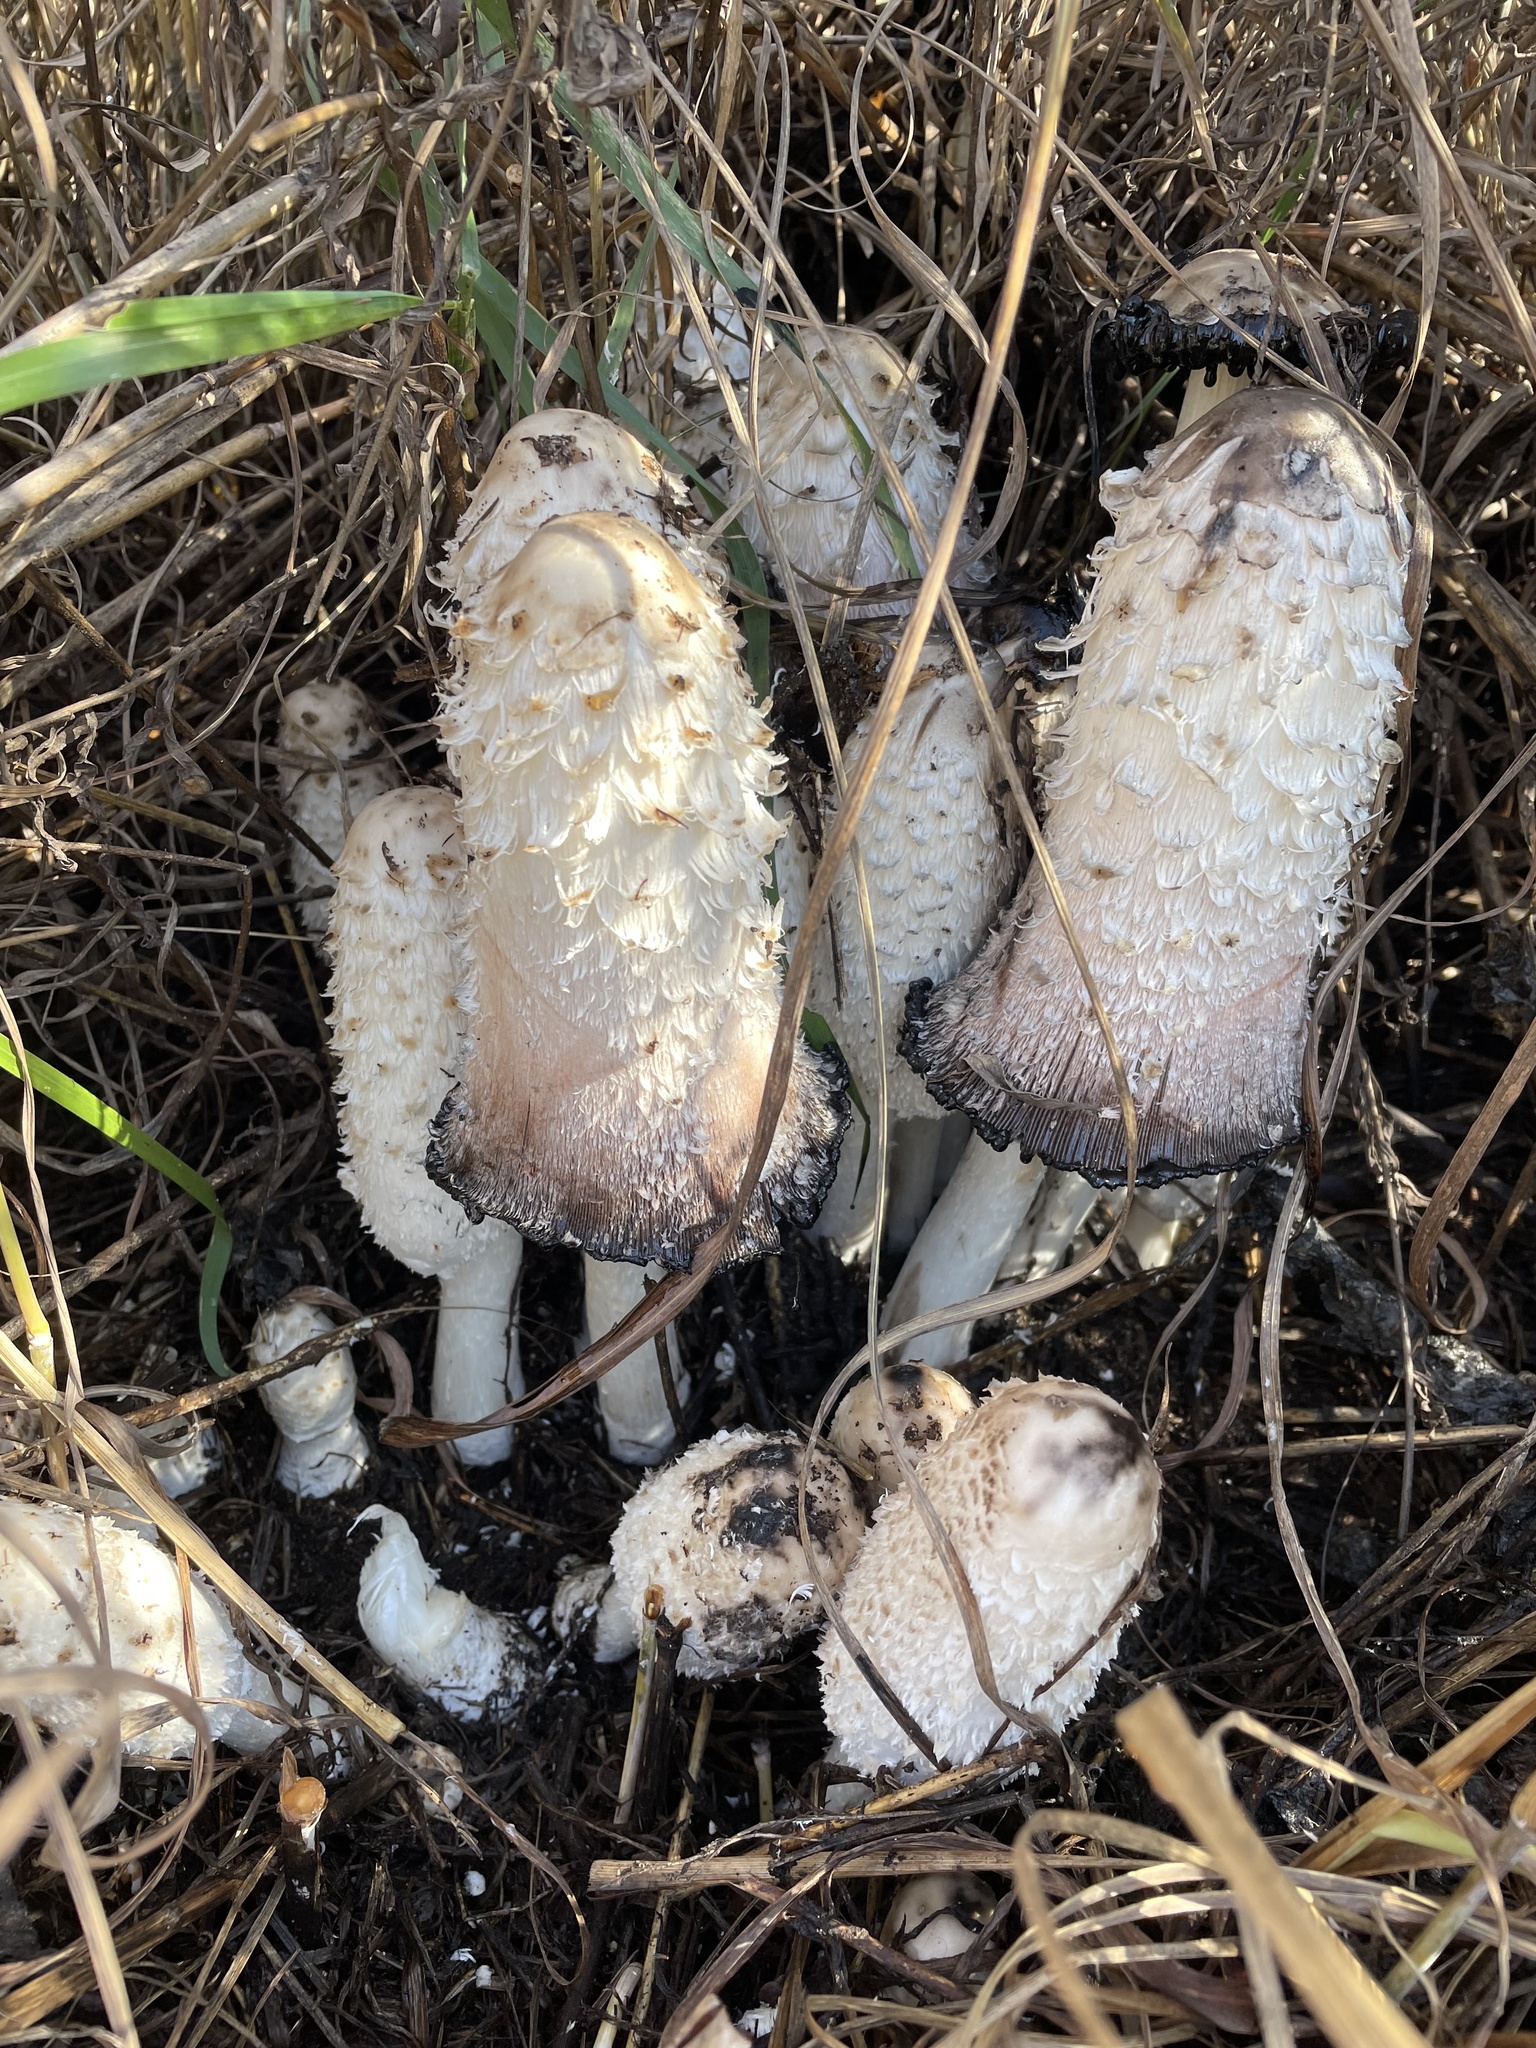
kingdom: Fungi
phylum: Basidiomycota
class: Agaricomycetes
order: Agaricales
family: Agaricaceae
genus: Coprinus
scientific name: Coprinus comatus
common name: Lawyer's wig
